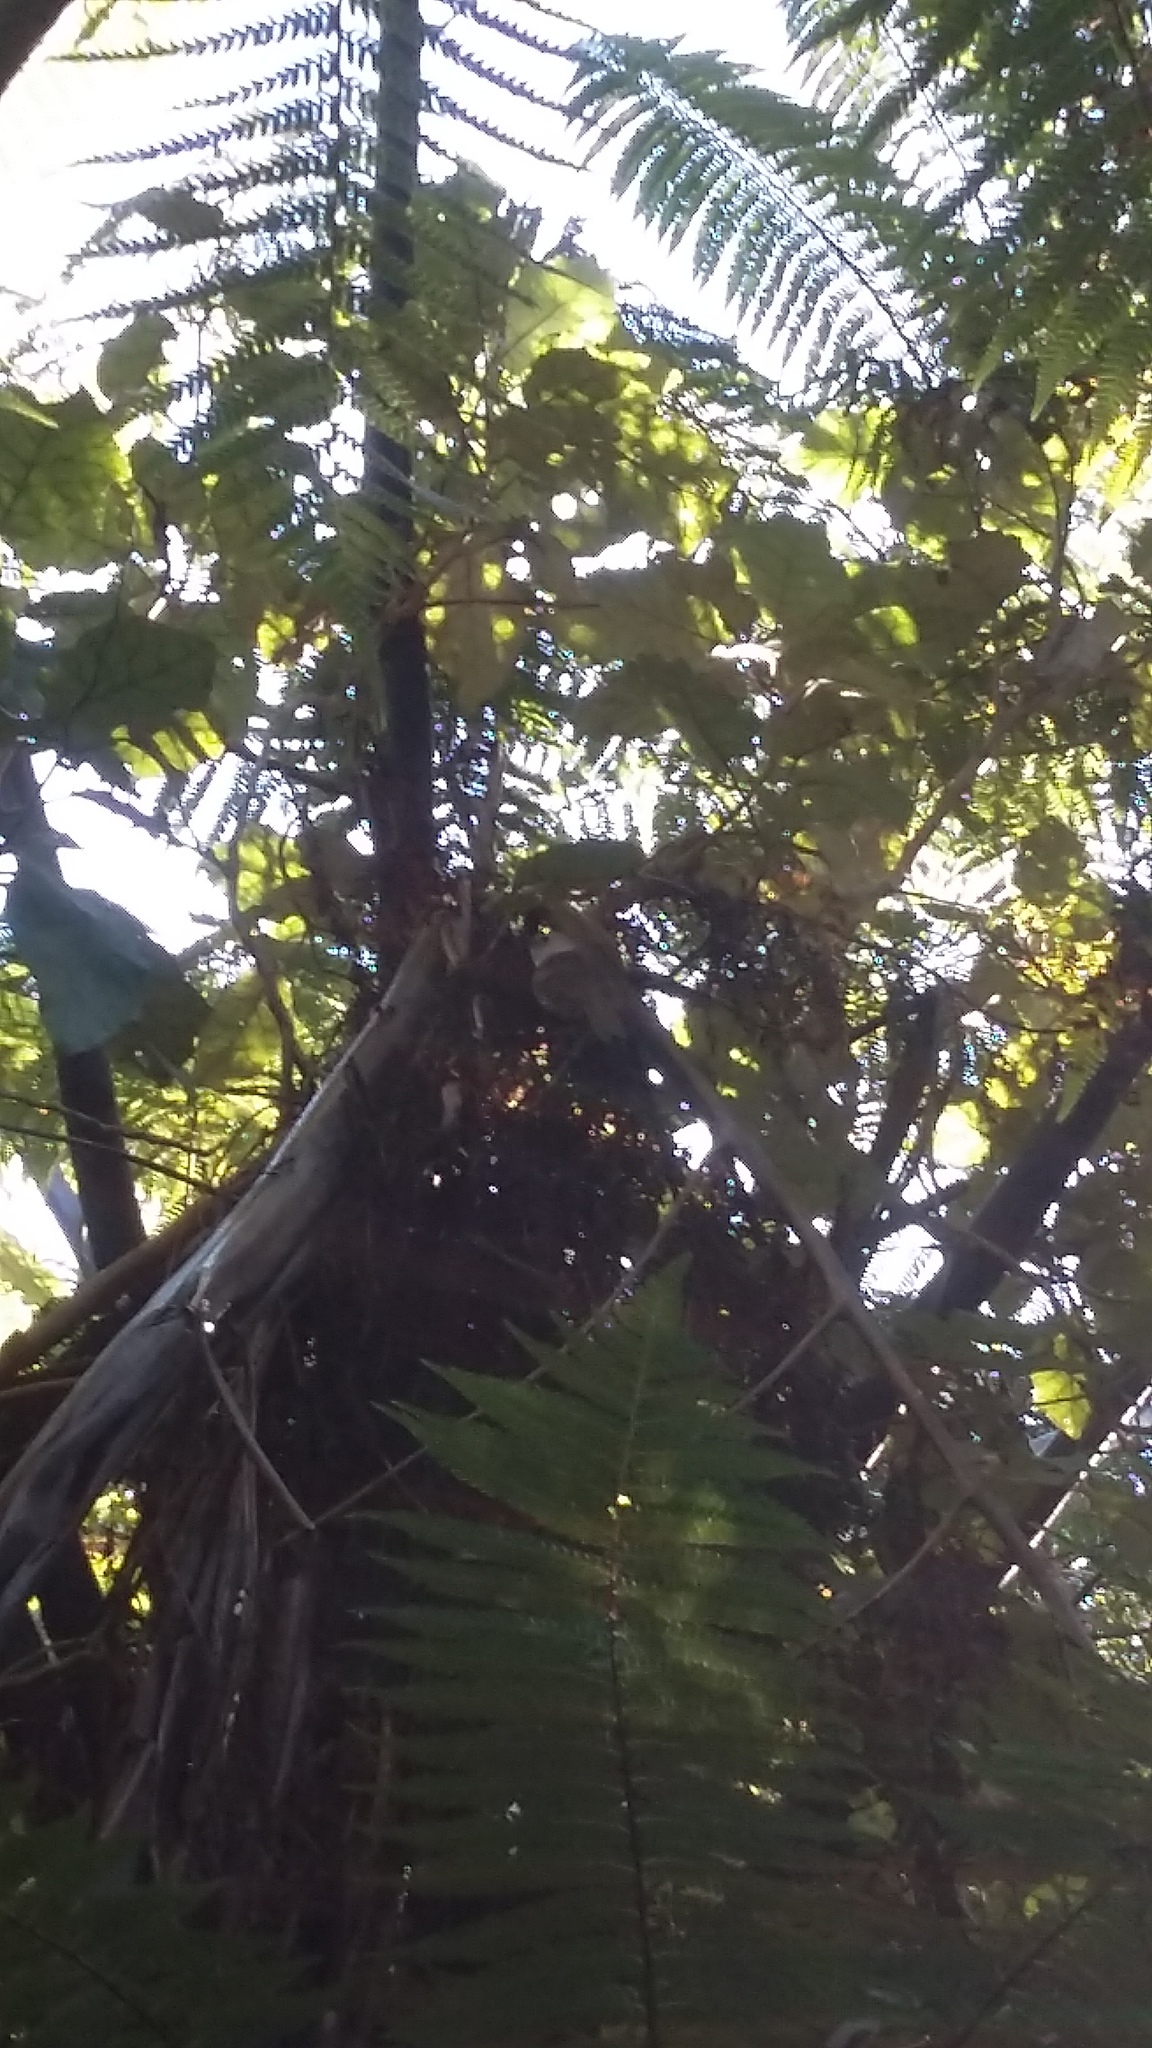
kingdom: Animalia
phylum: Chordata
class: Aves
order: Passeriformes
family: Acanthizidae
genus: Mohoua
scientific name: Mohoua albicilla
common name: Whitehead
